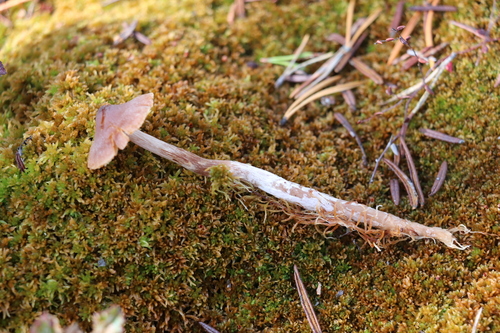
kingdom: Fungi
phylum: Basidiomycota
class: Agaricomycetes
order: Agaricales
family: Cortinariaceae
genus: Cortinarius
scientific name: Cortinarius flos-paludis
